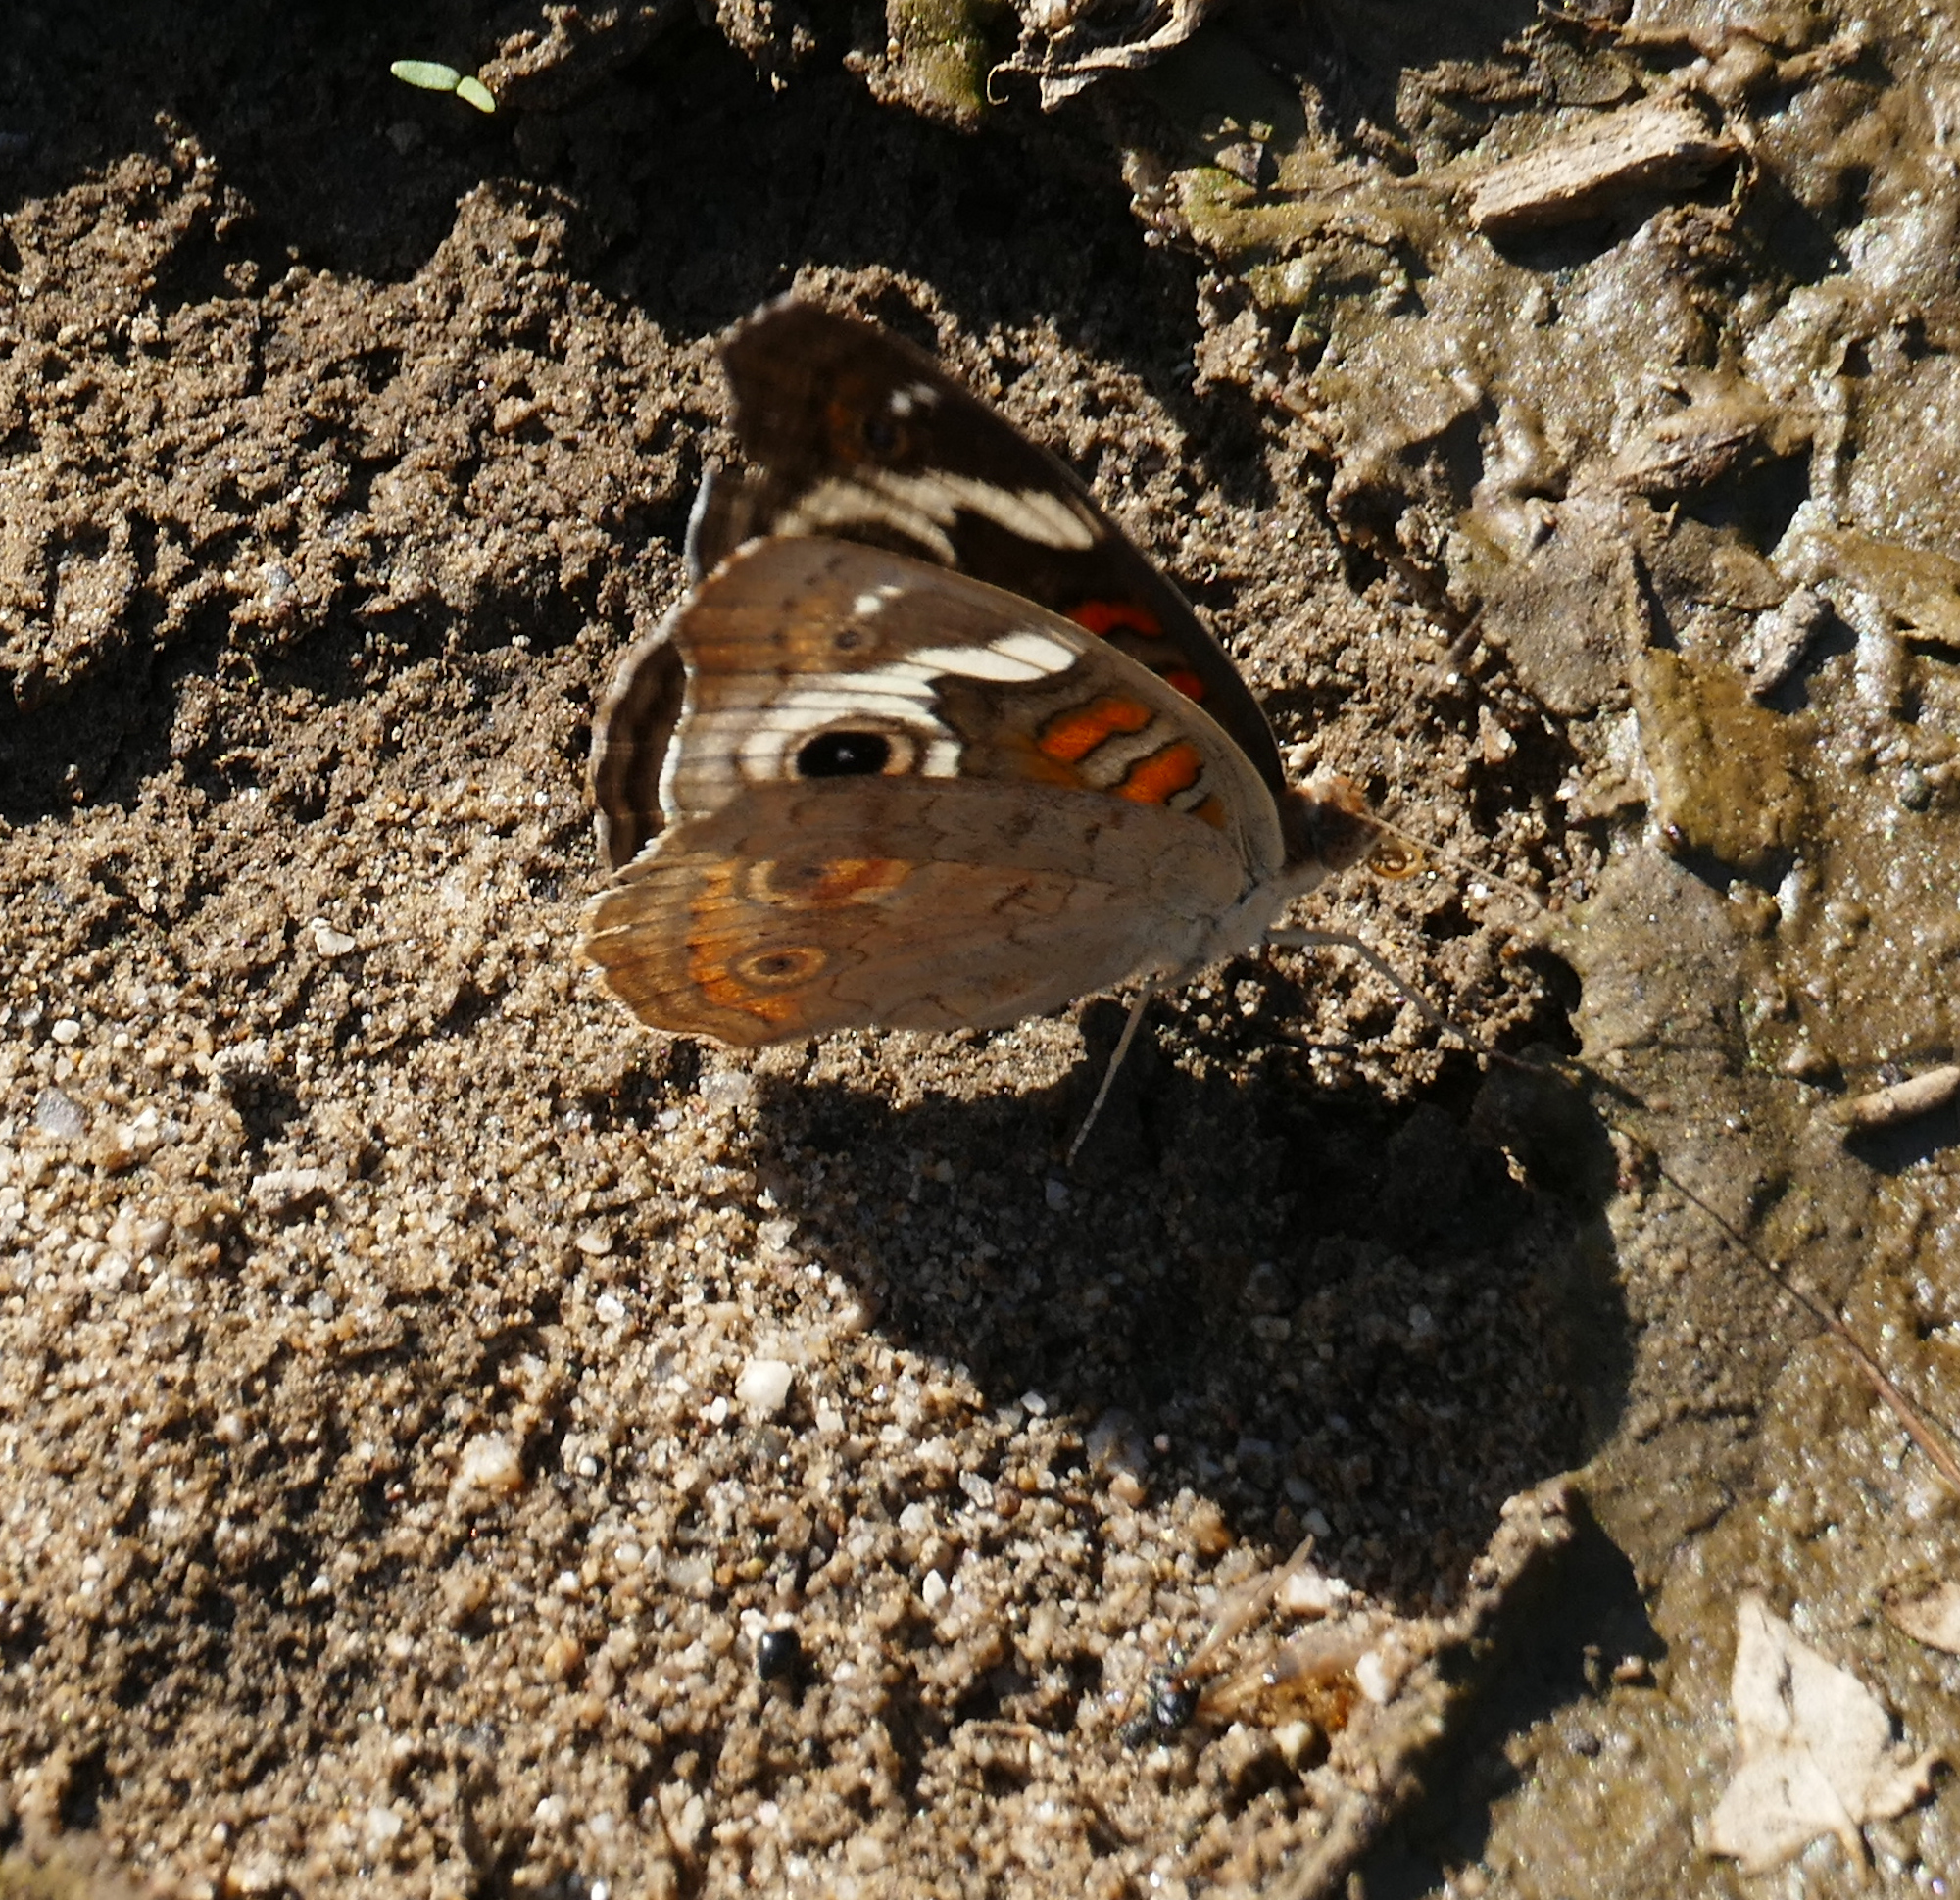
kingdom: Animalia
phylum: Arthropoda
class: Insecta
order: Lepidoptera
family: Nymphalidae
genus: Junonia
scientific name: Junonia grisea
